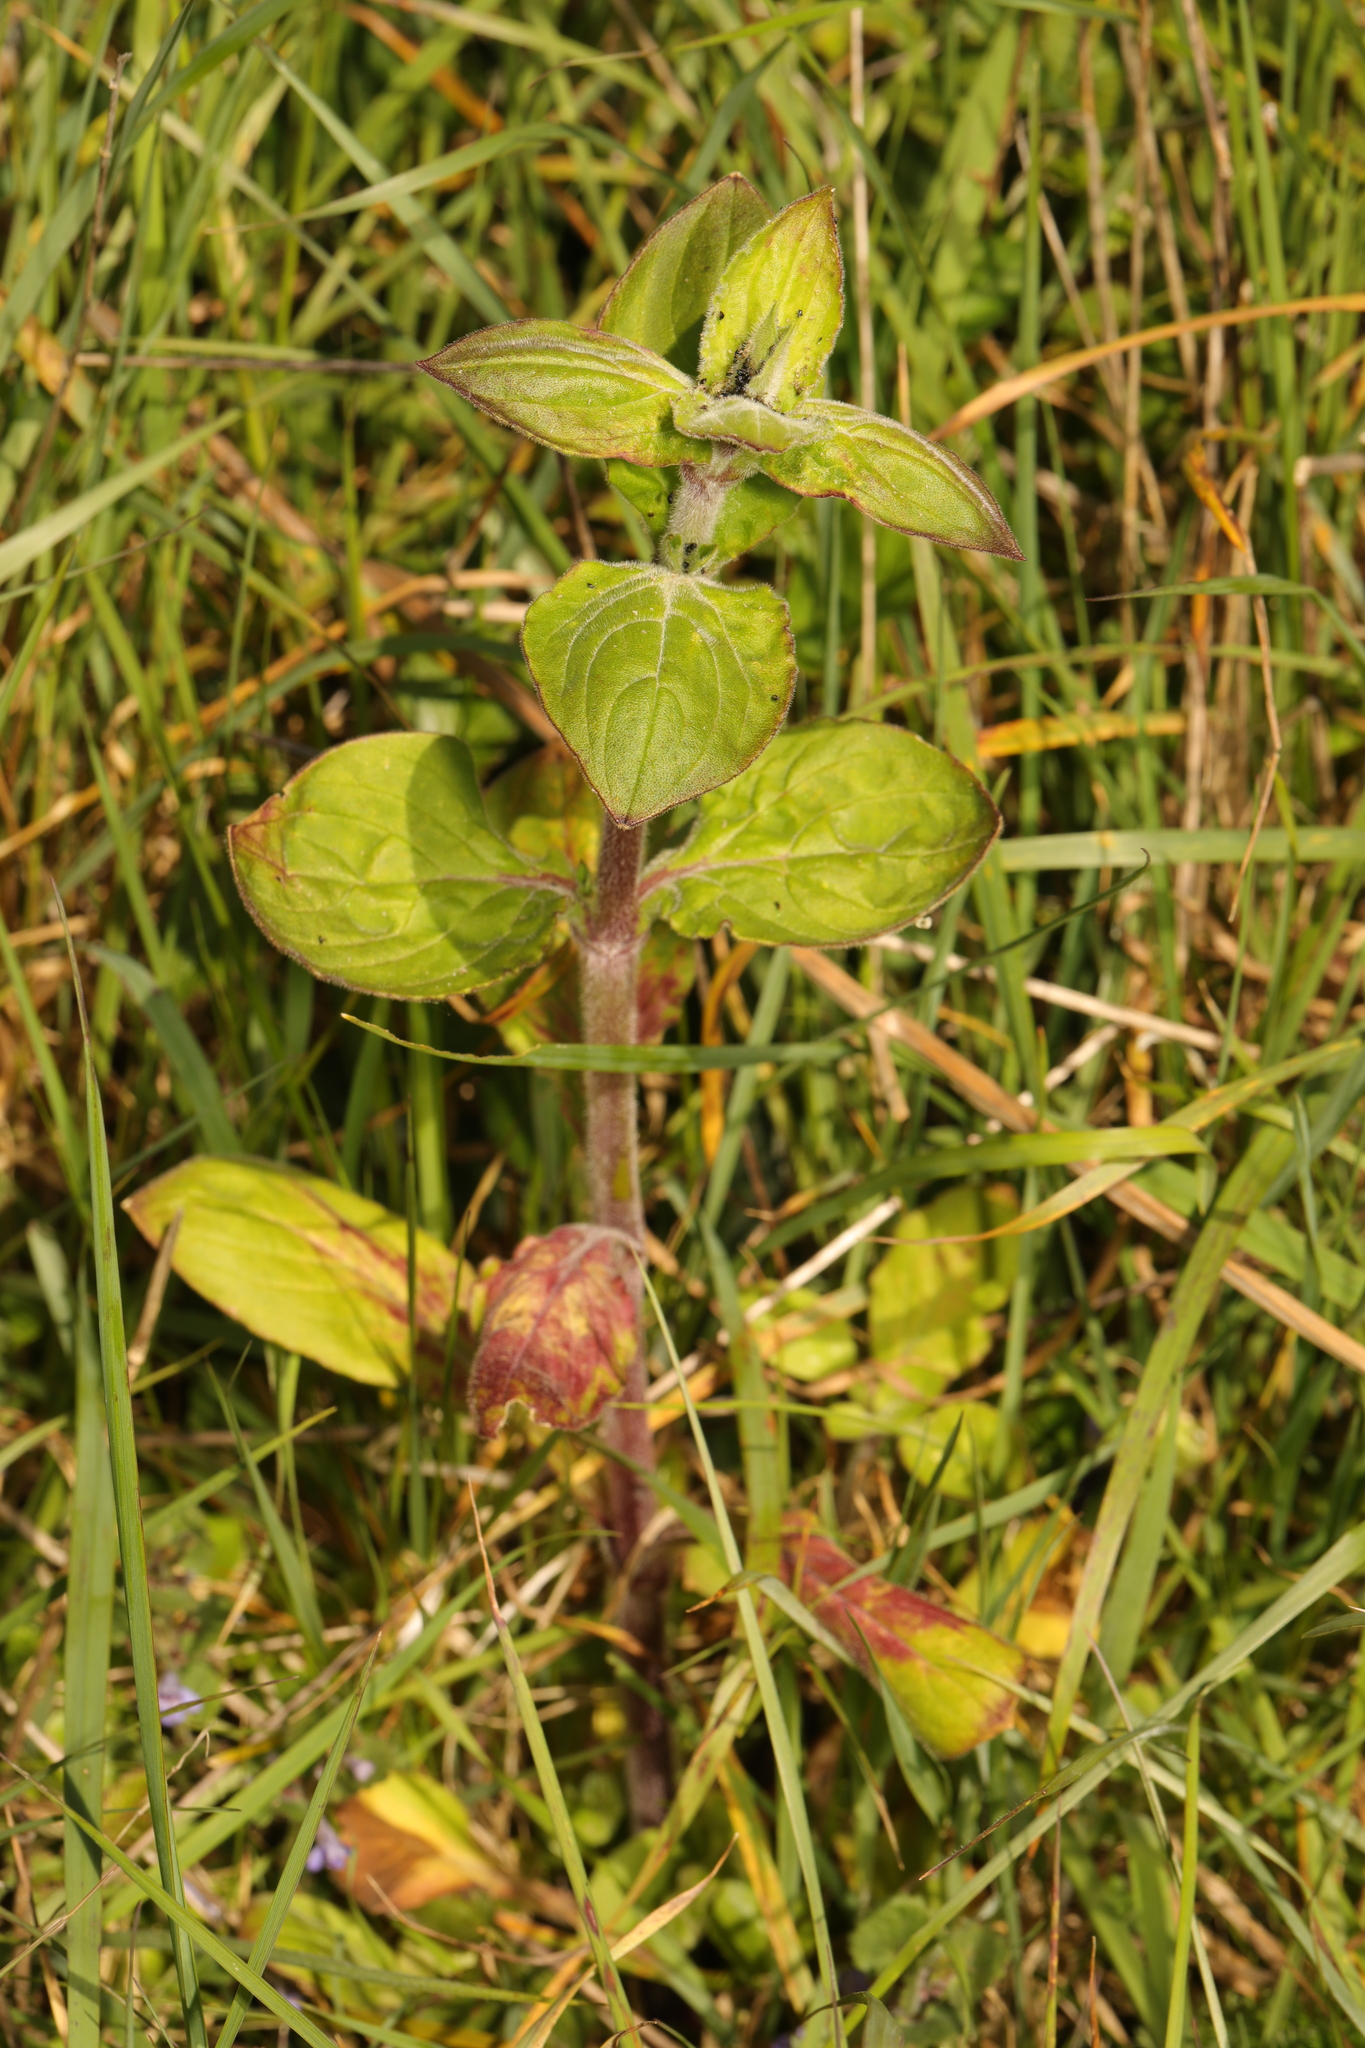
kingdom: Plantae
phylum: Tracheophyta
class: Magnoliopsida
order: Caryophyllales
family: Caryophyllaceae
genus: Silene
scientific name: Silene dioica
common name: Red campion
